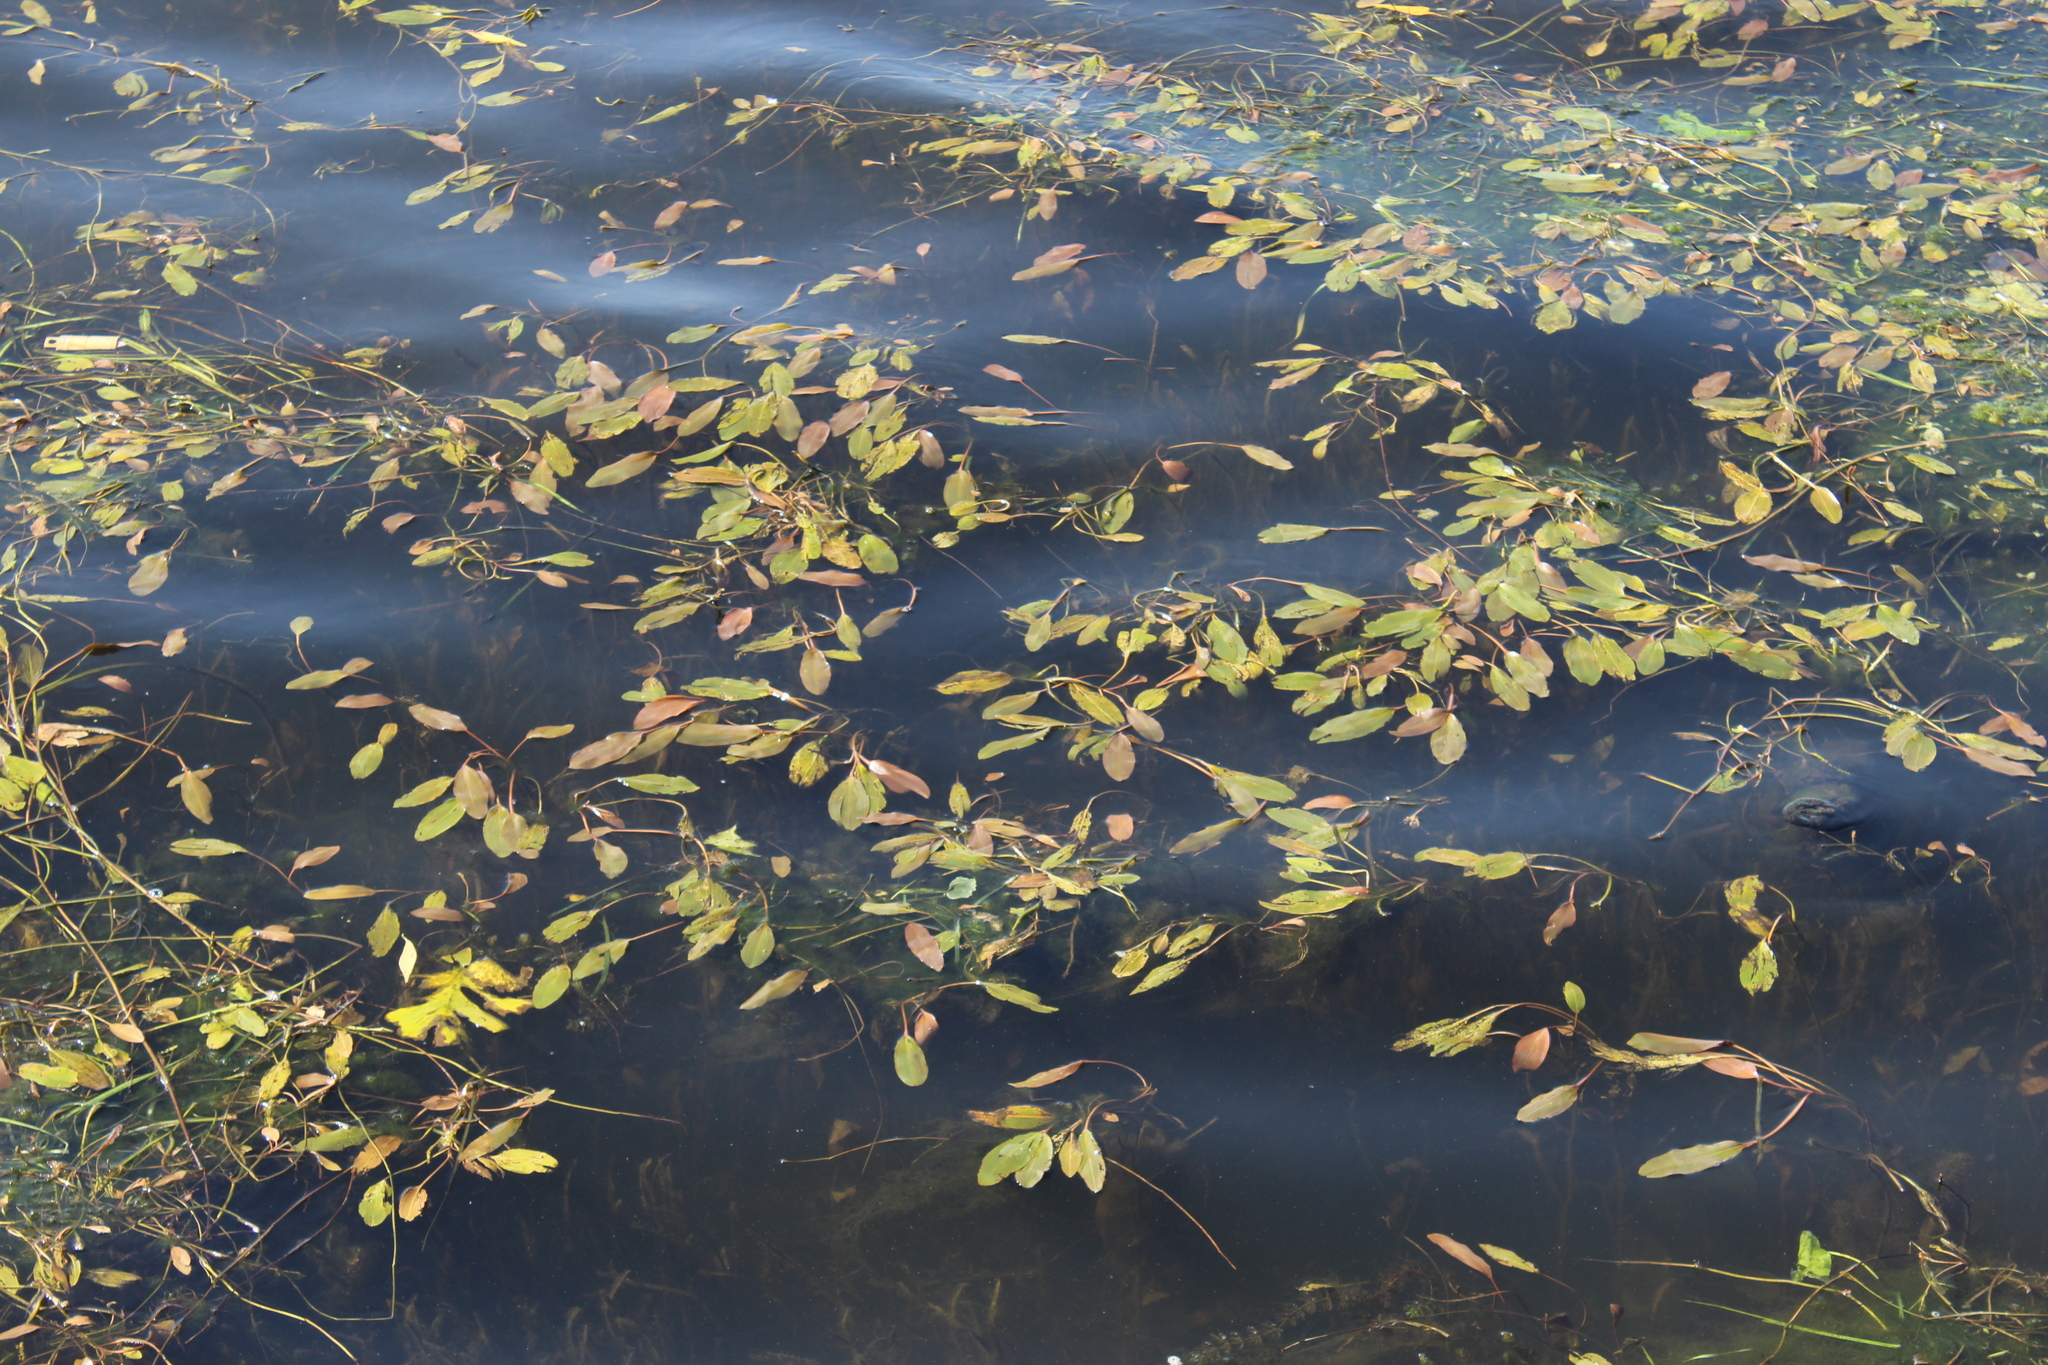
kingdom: Plantae
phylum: Tracheophyta
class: Liliopsida
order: Alismatales
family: Potamogetonaceae
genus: Potamogeton
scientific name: Potamogeton nodosus
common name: Loddon pondweed
